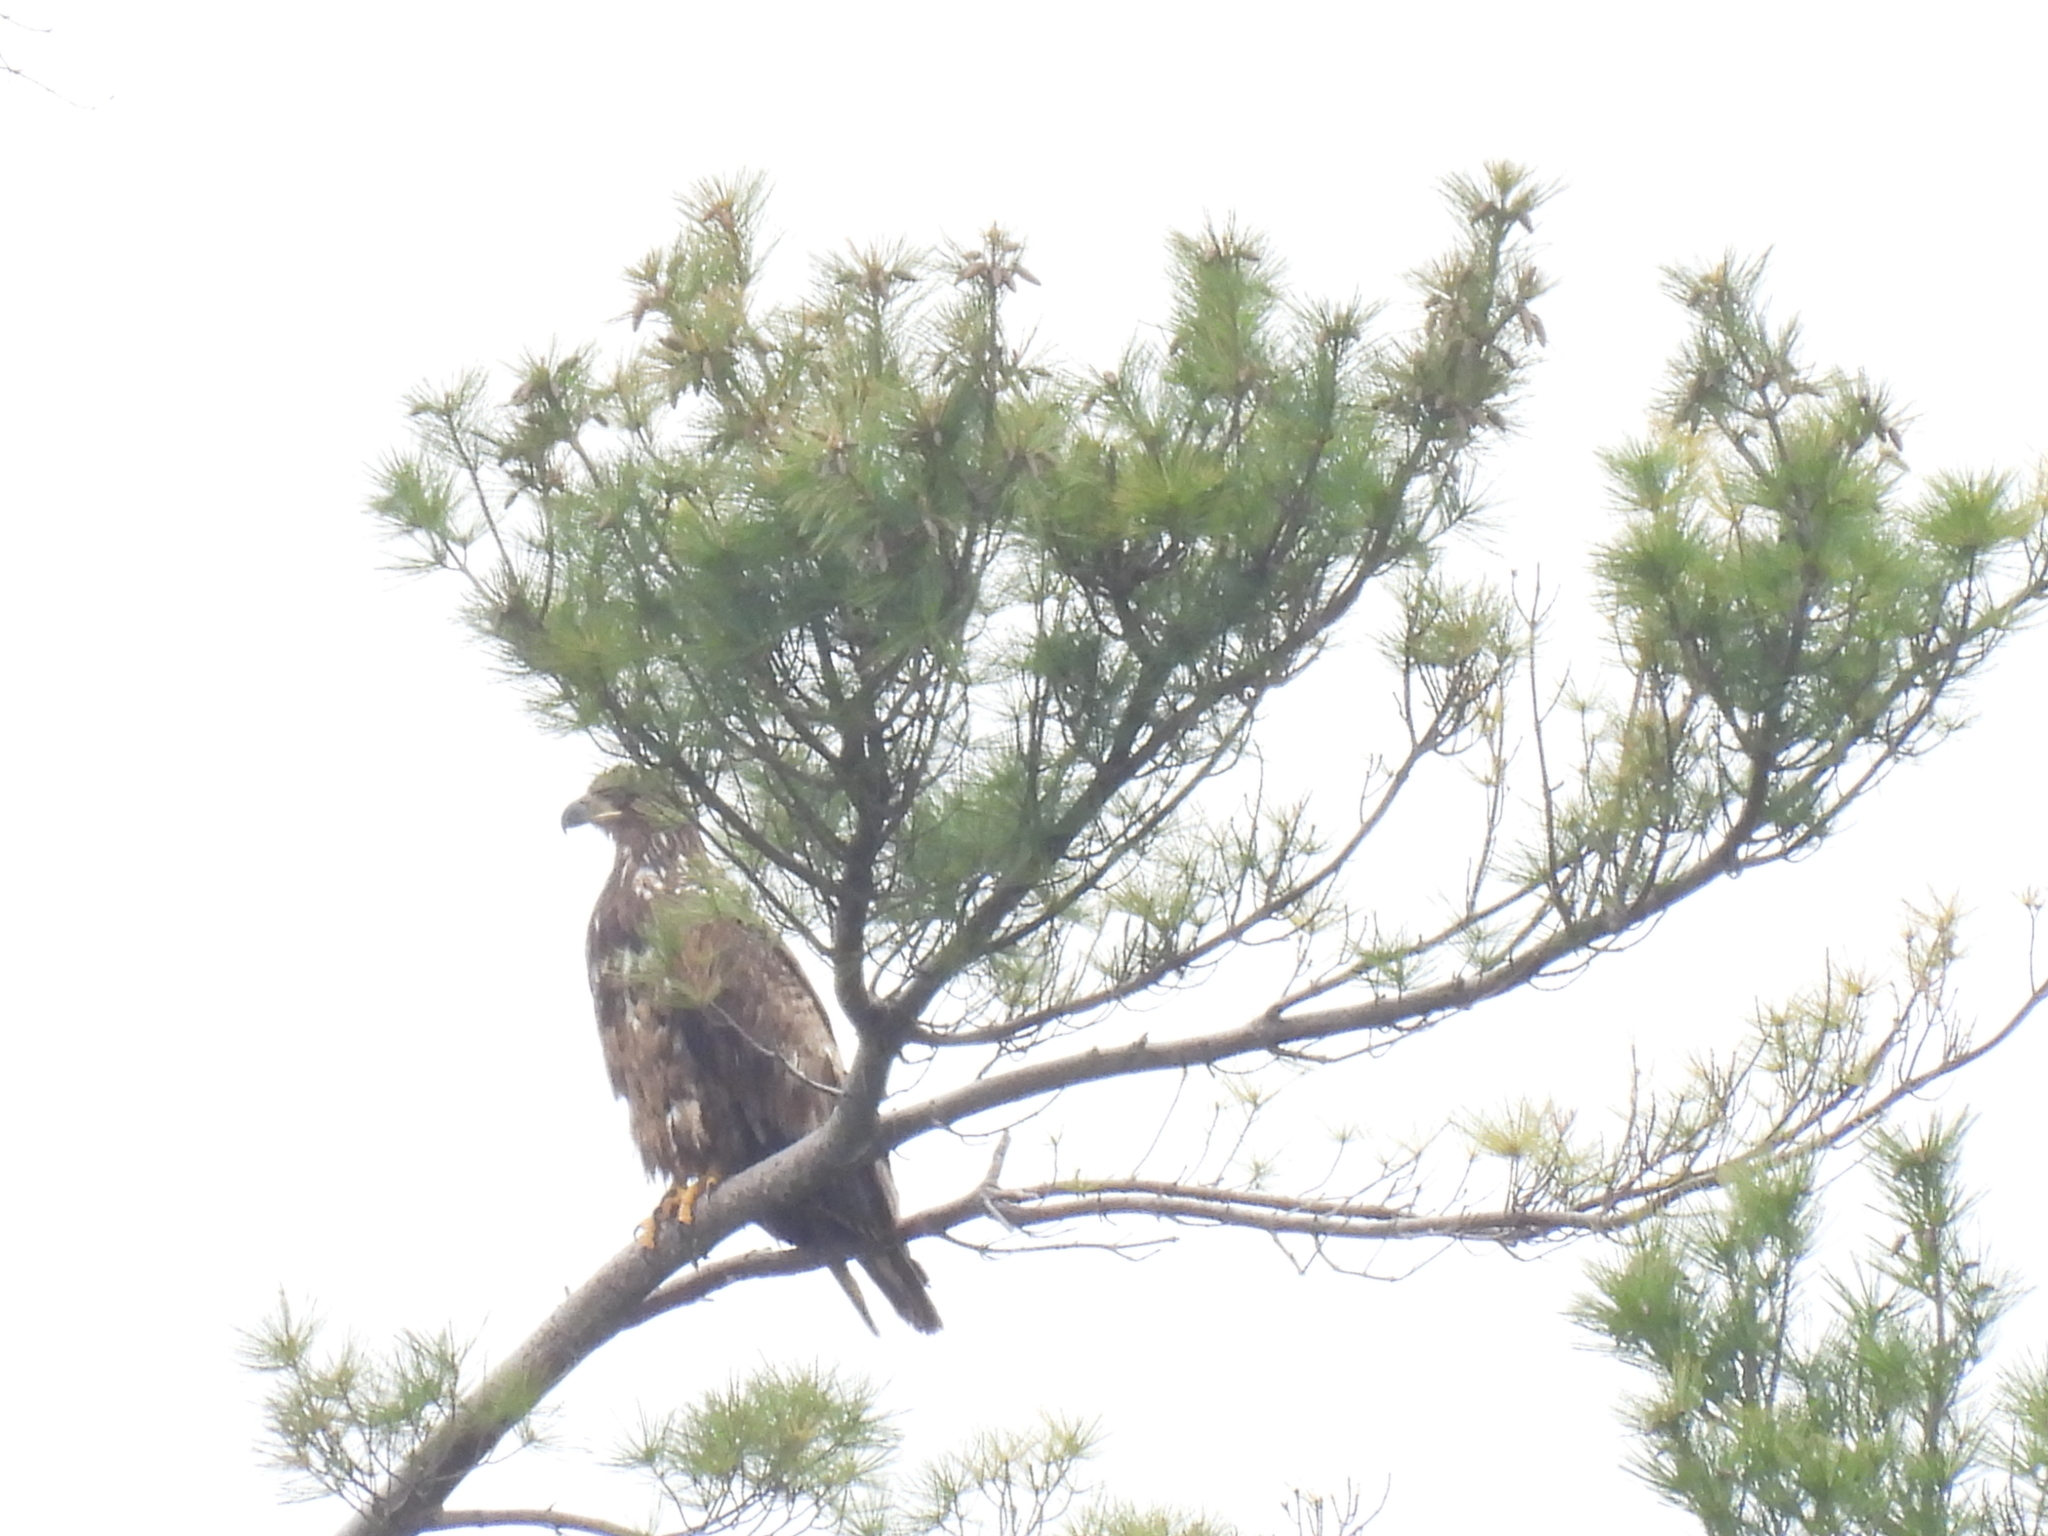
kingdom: Animalia
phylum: Chordata
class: Aves
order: Accipitriformes
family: Accipitridae
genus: Haliaeetus
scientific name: Haliaeetus leucocephalus
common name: Bald eagle
